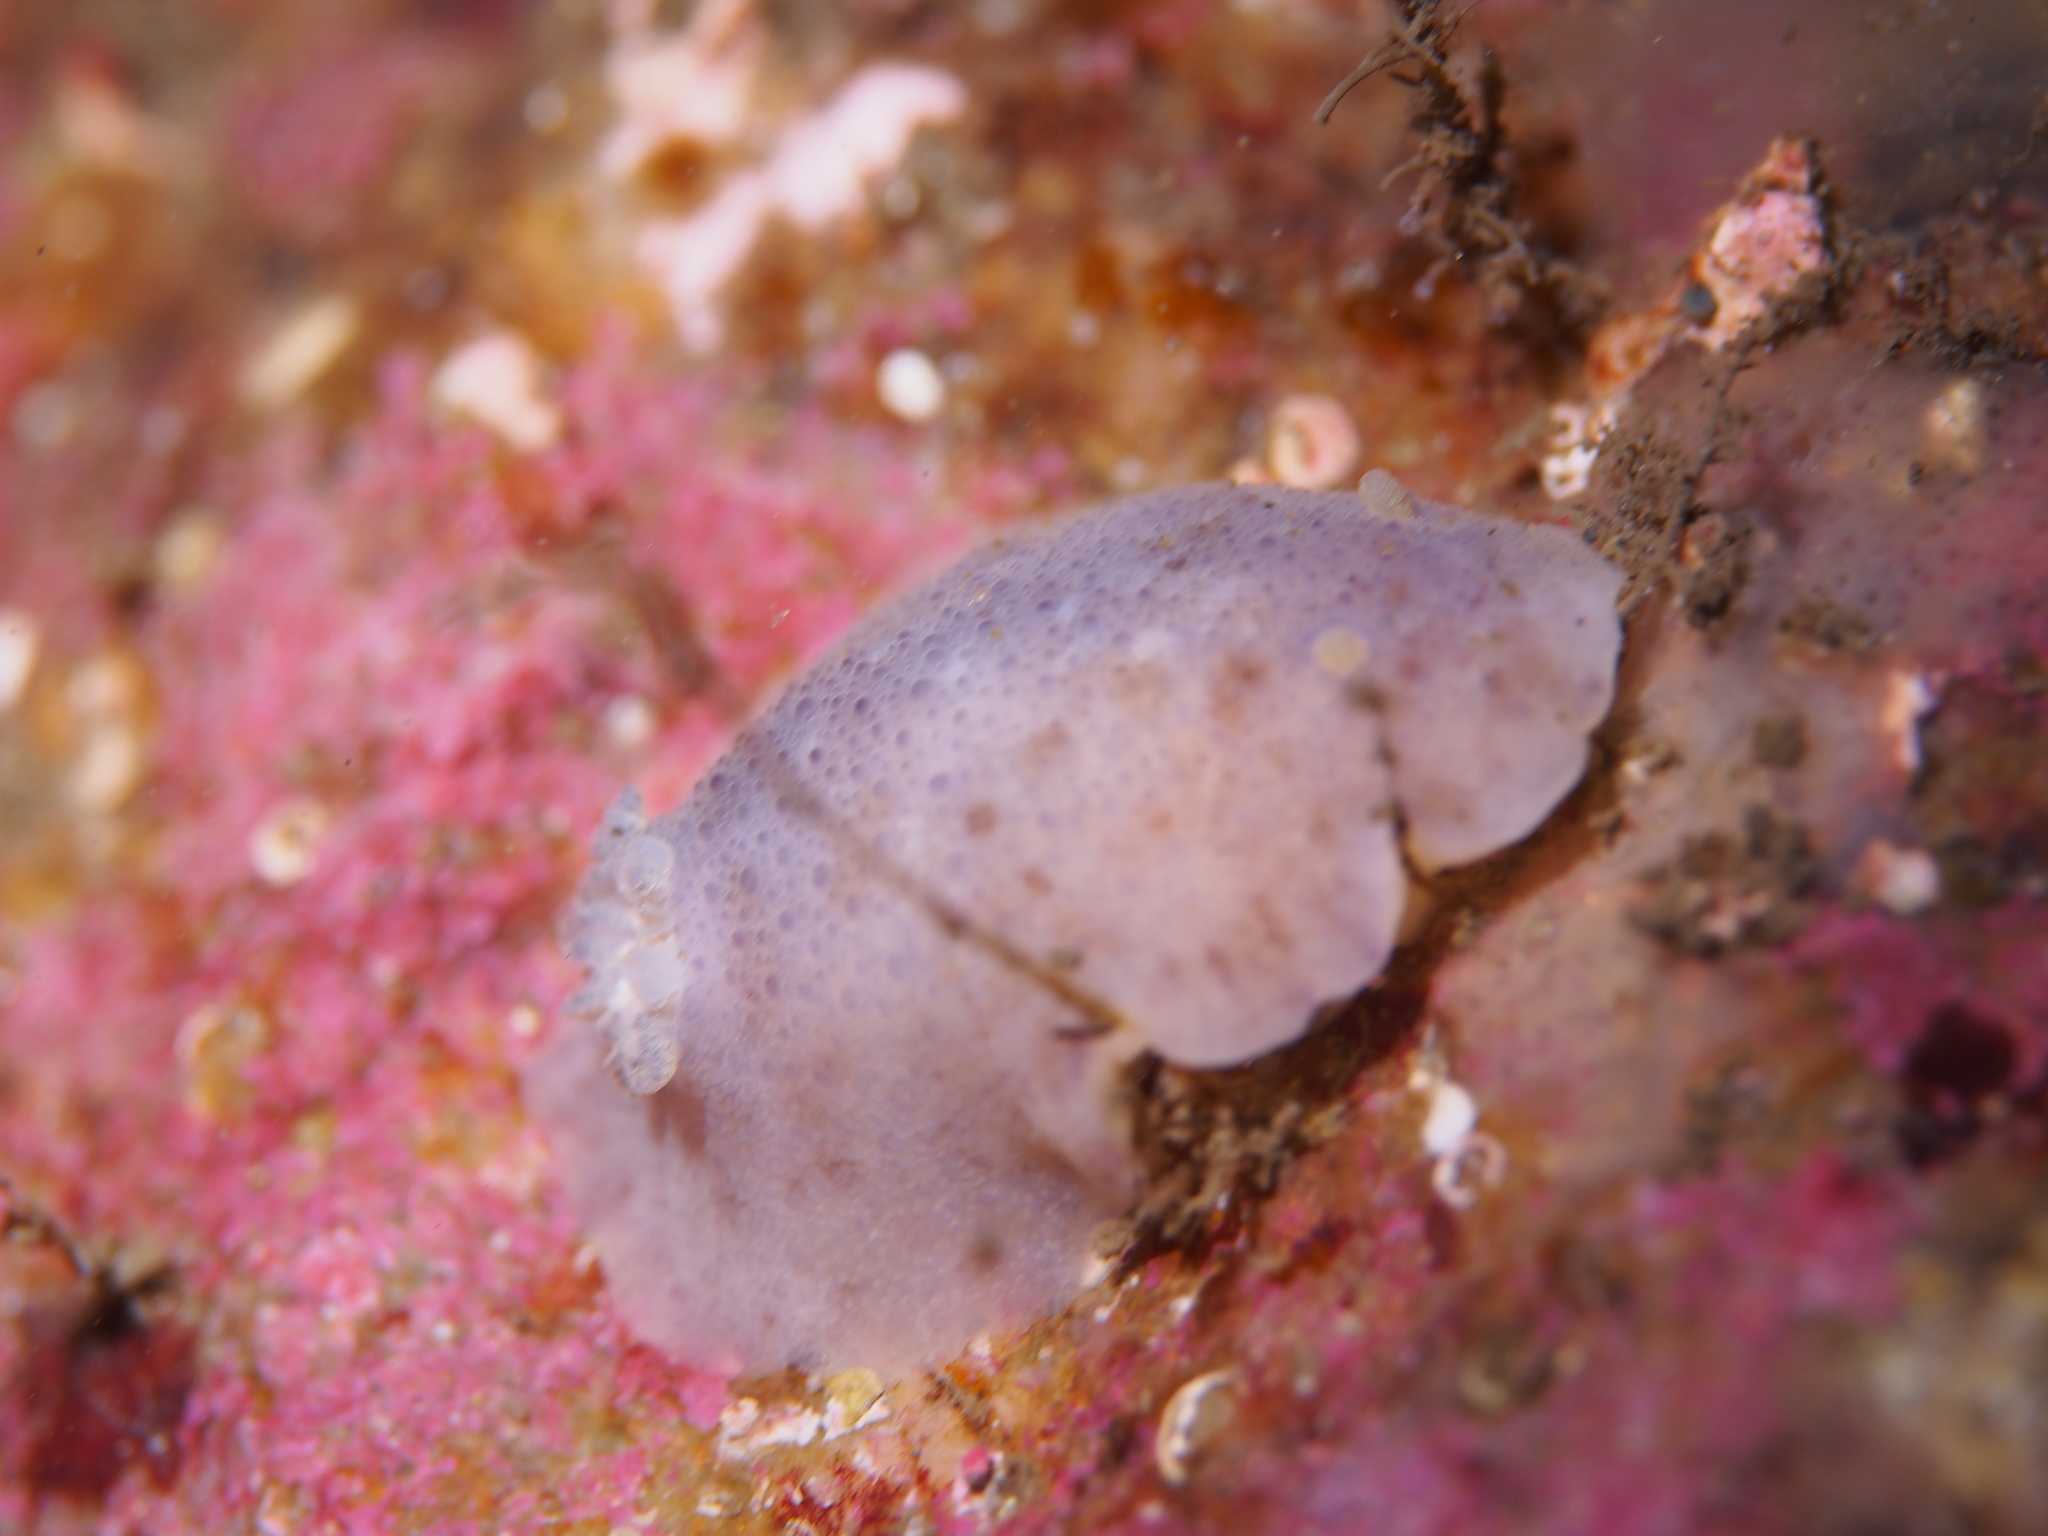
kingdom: Animalia
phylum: Mollusca
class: Gastropoda
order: Nudibranchia
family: Dorididae
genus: Doris
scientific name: Doris pseudoargus
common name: Sea lemon
